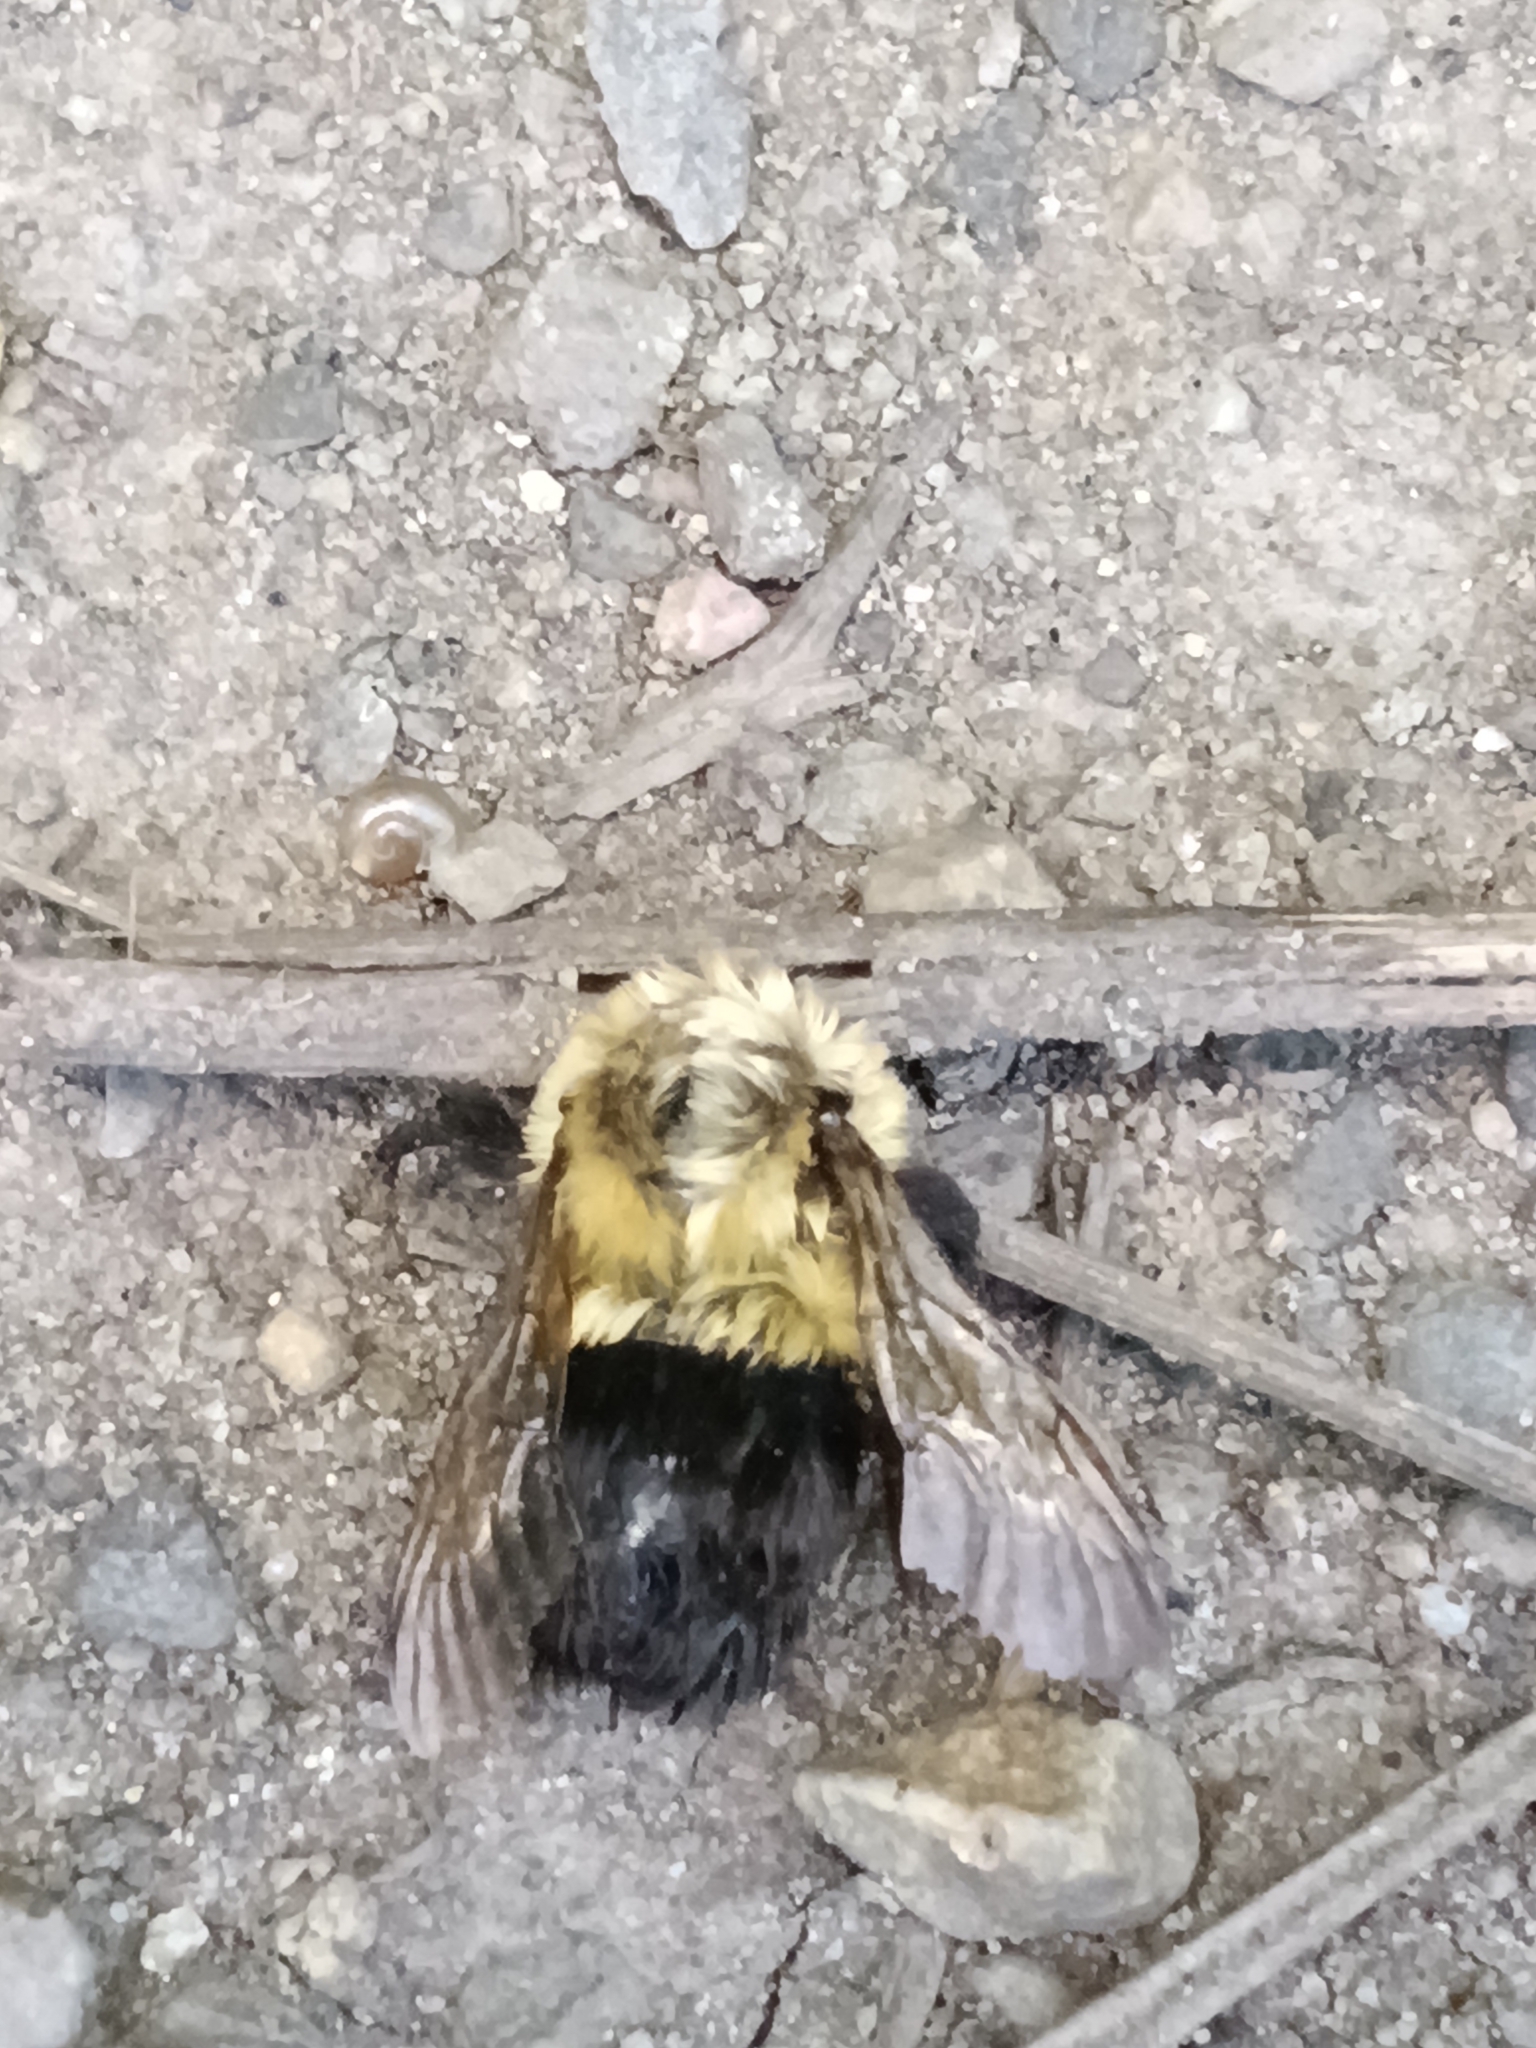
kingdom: Animalia
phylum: Arthropoda
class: Insecta
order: Hymenoptera
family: Apidae
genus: Bombus
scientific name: Bombus impatiens
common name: Common eastern bumble bee
